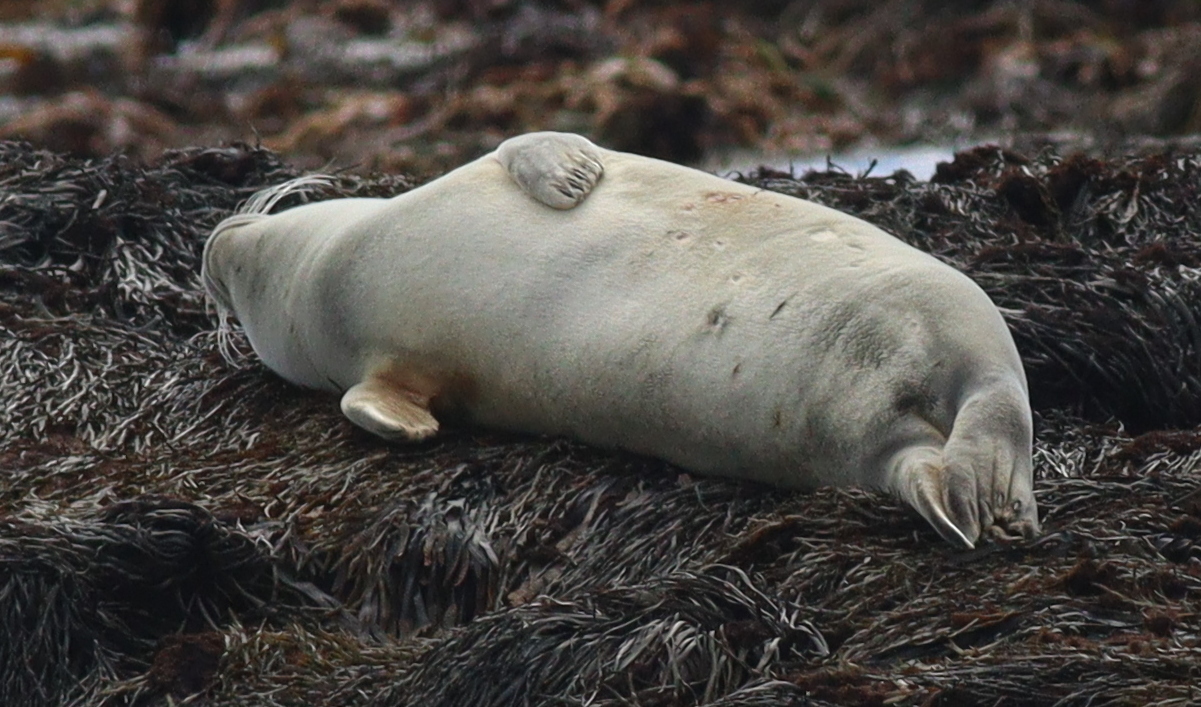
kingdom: Animalia
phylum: Chordata
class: Mammalia
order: Carnivora
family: Phocidae
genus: Phoca
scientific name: Phoca vitulina
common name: Harbor seal
